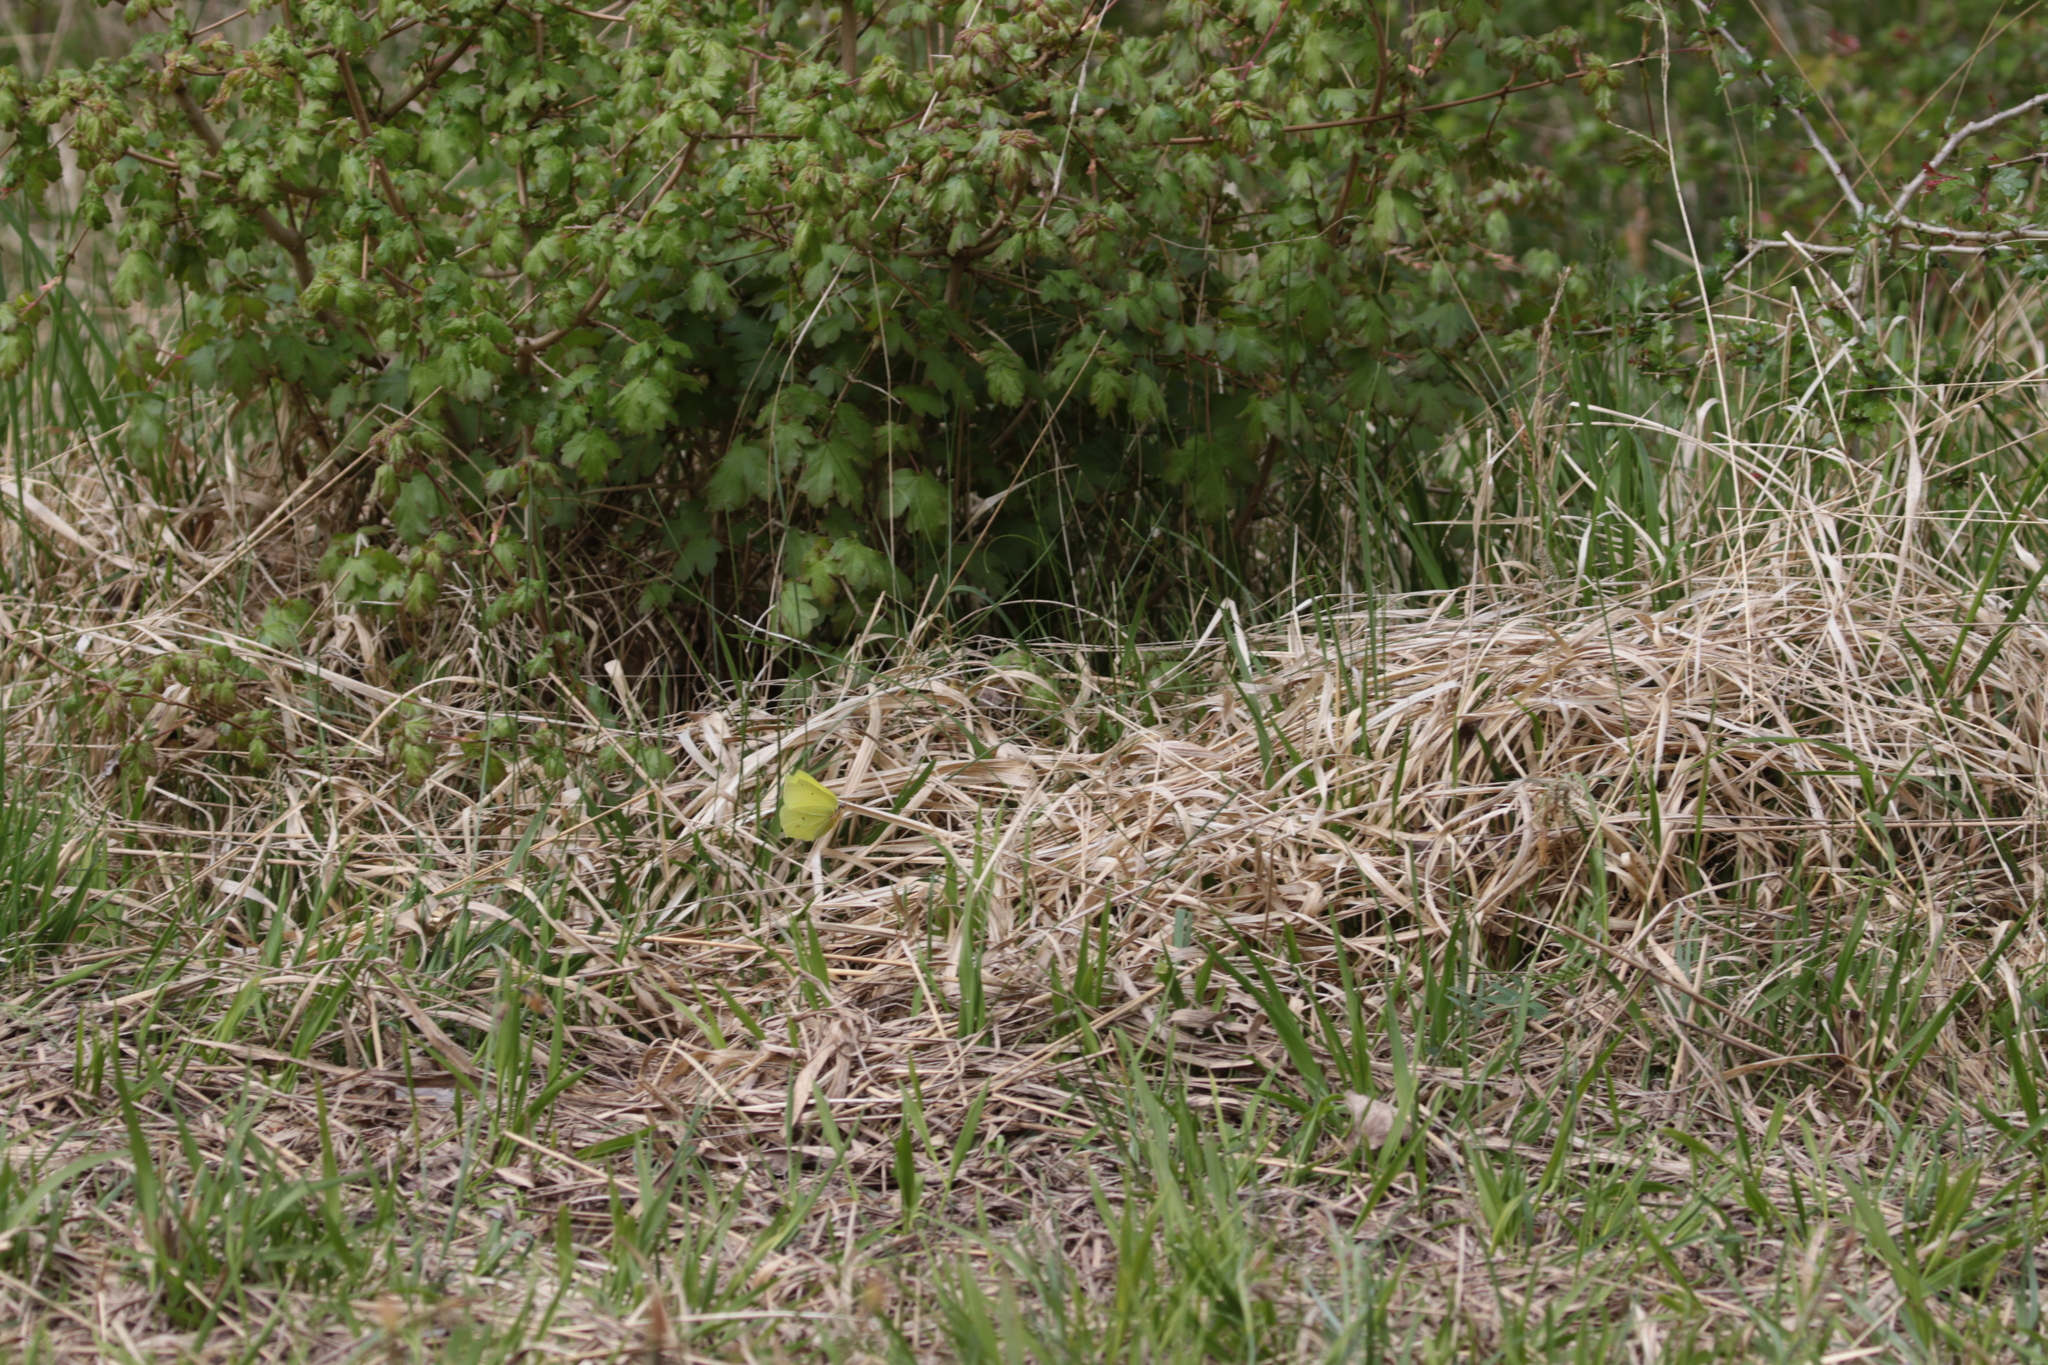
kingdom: Animalia
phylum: Arthropoda
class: Insecta
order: Lepidoptera
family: Pieridae
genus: Gonepteryx
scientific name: Gonepteryx rhamni
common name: Brimstone
